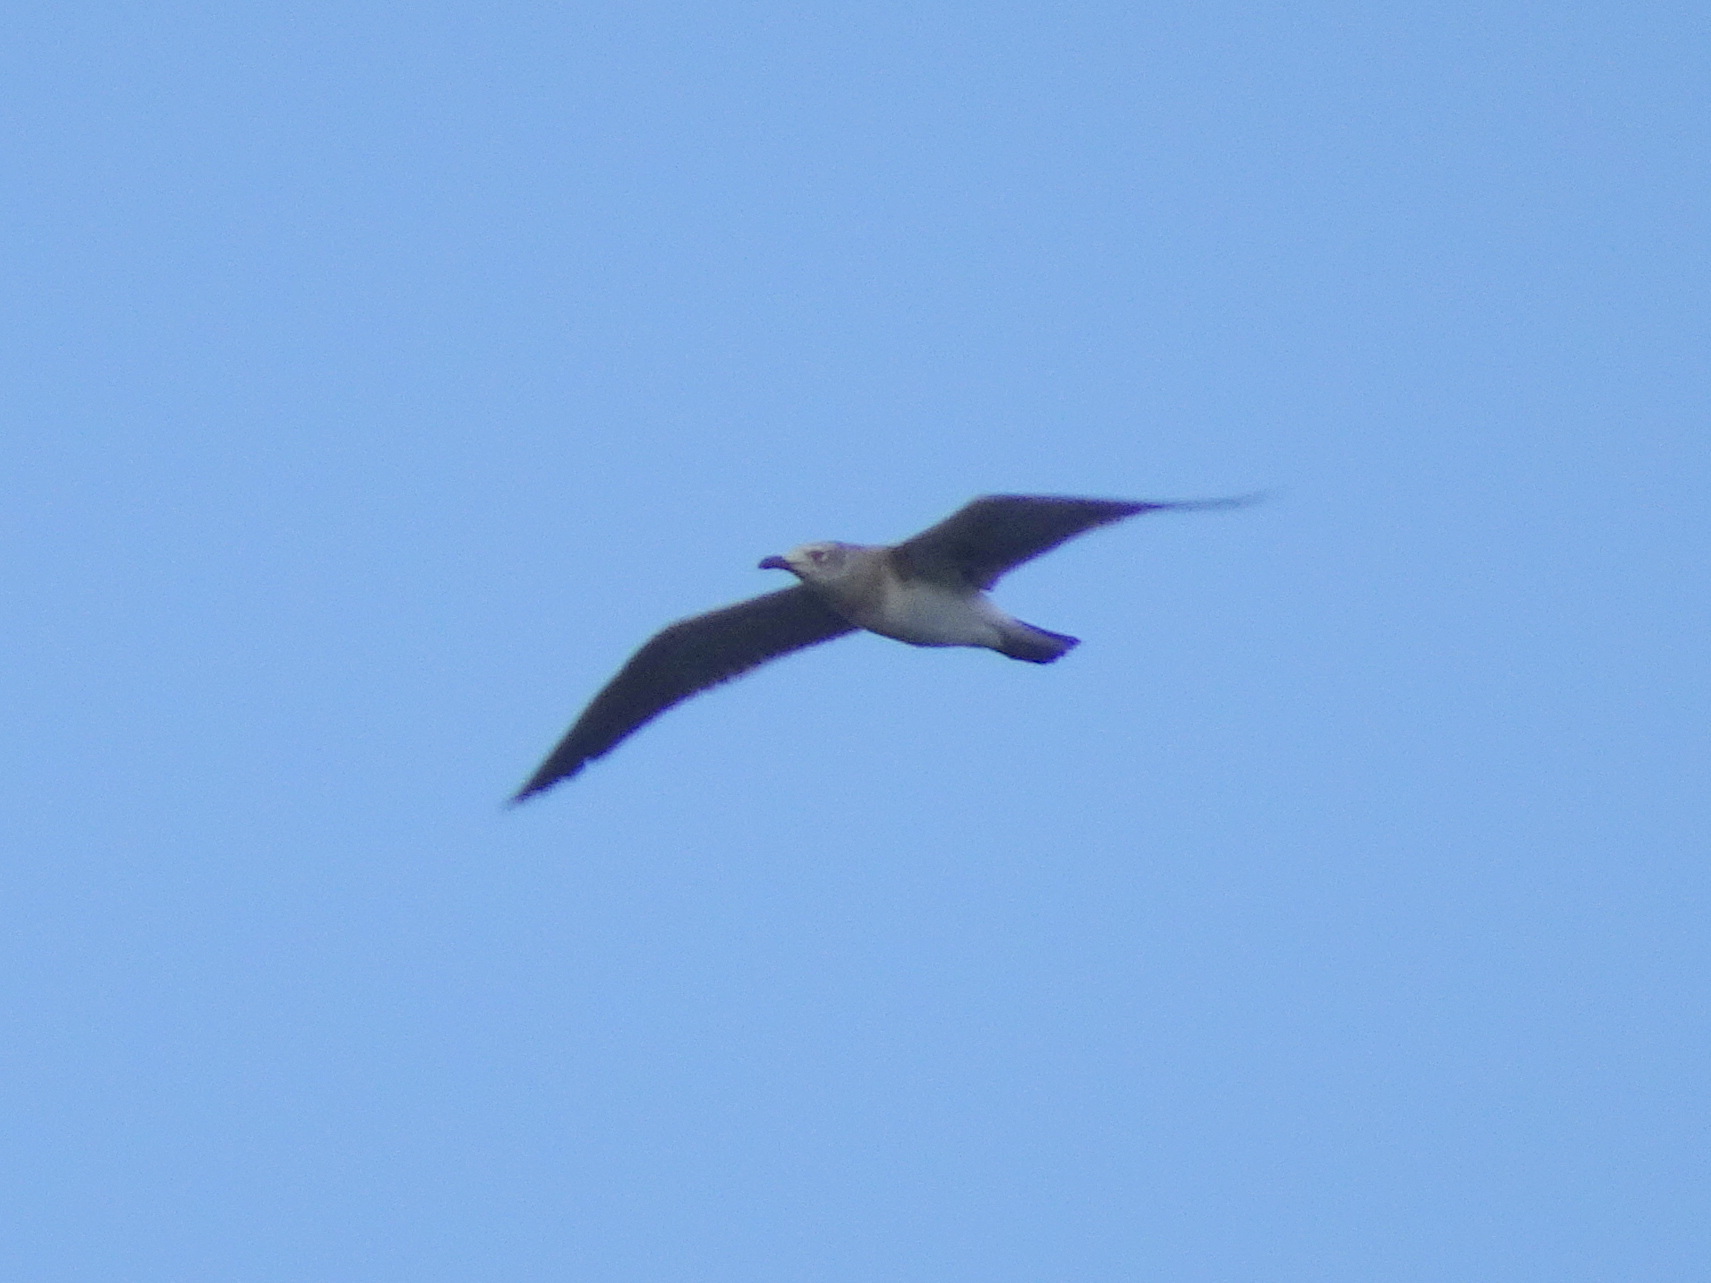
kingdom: Animalia
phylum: Chordata
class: Aves
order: Charadriiformes
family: Laridae
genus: Leucophaeus
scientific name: Leucophaeus atricilla
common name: Laughing gull
